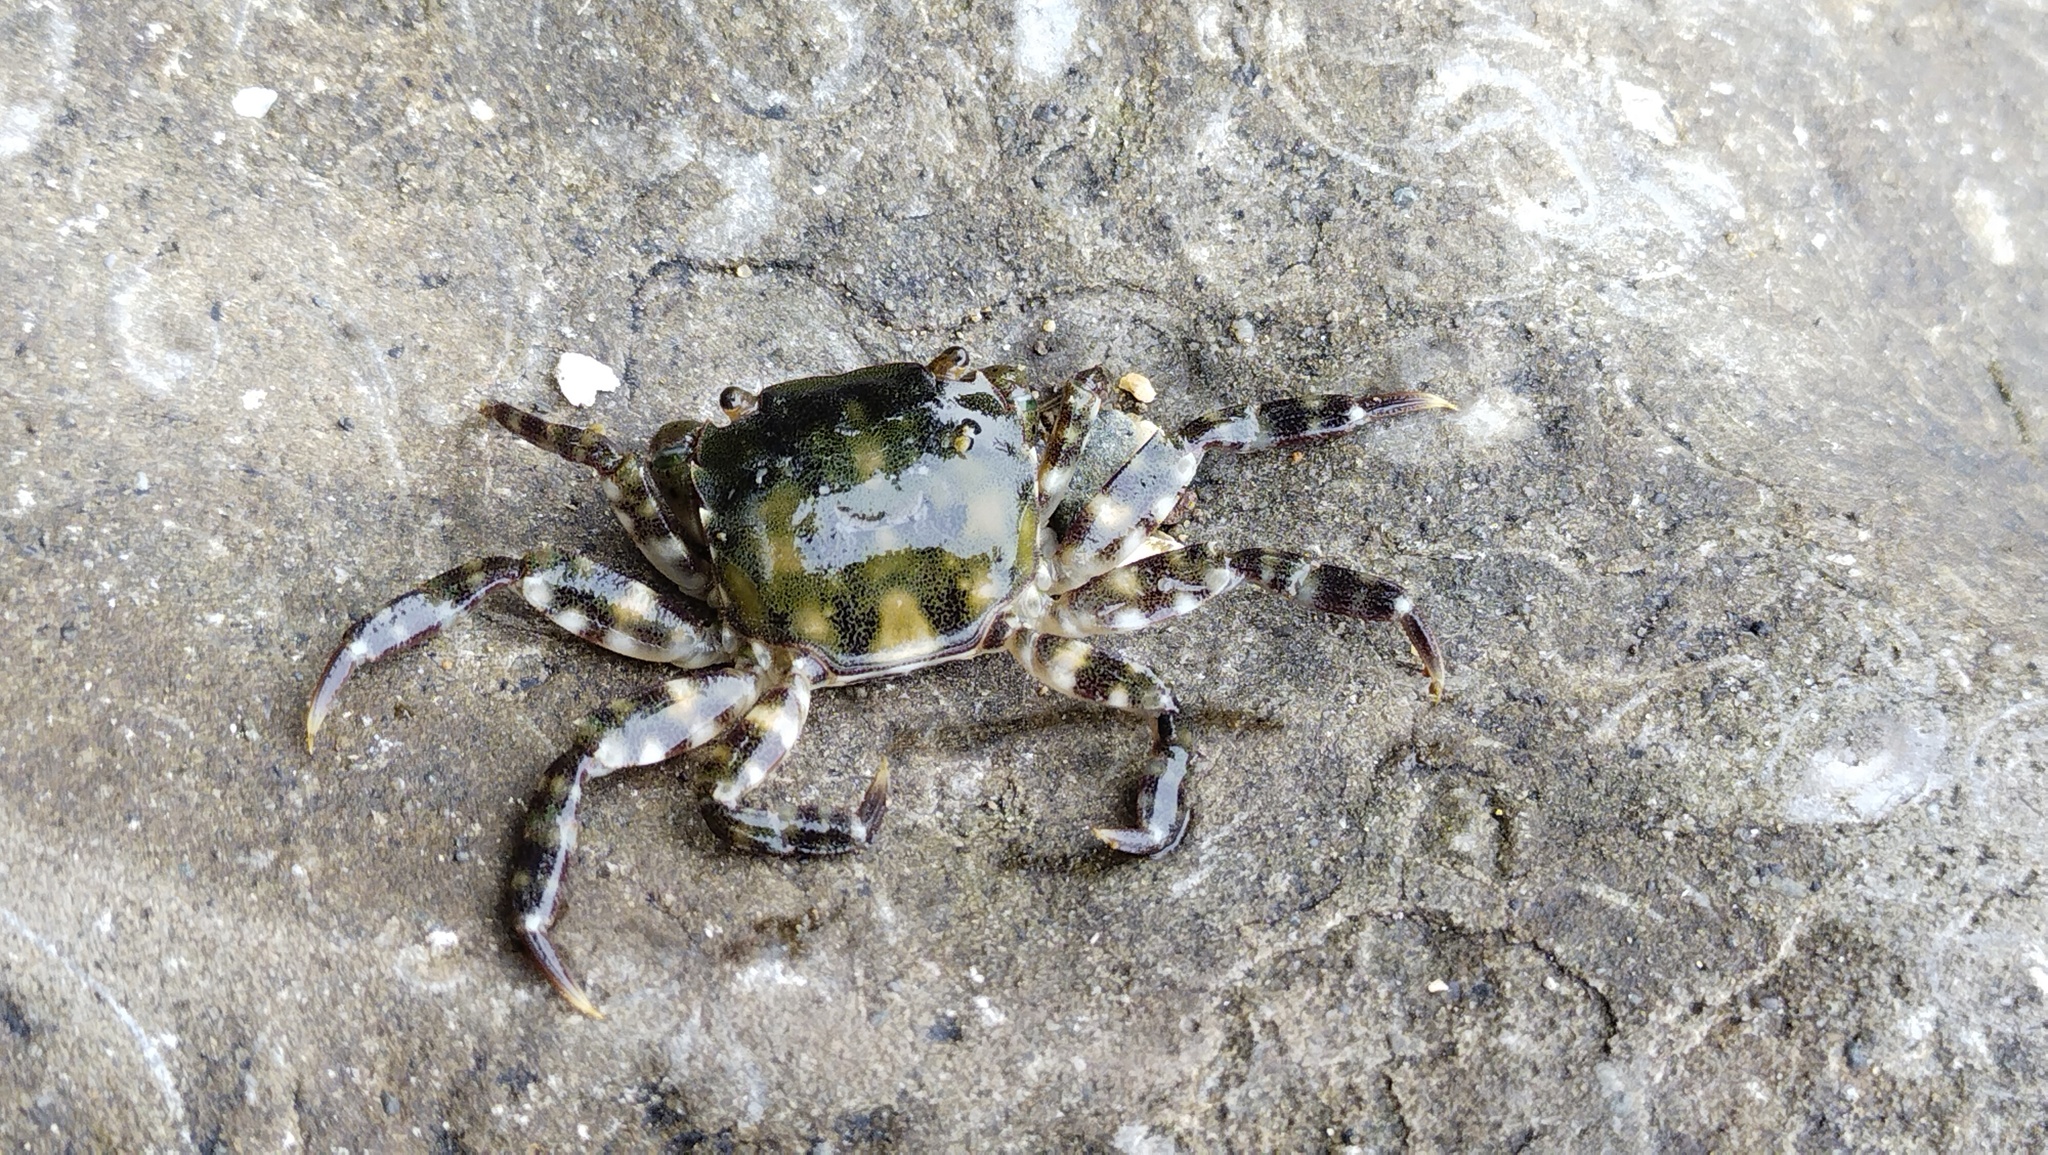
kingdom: Animalia
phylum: Arthropoda
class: Malacostraca
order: Decapoda
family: Varunidae
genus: Hemigrapsus
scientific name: Hemigrapsus sanguineus
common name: Asian shore crab
